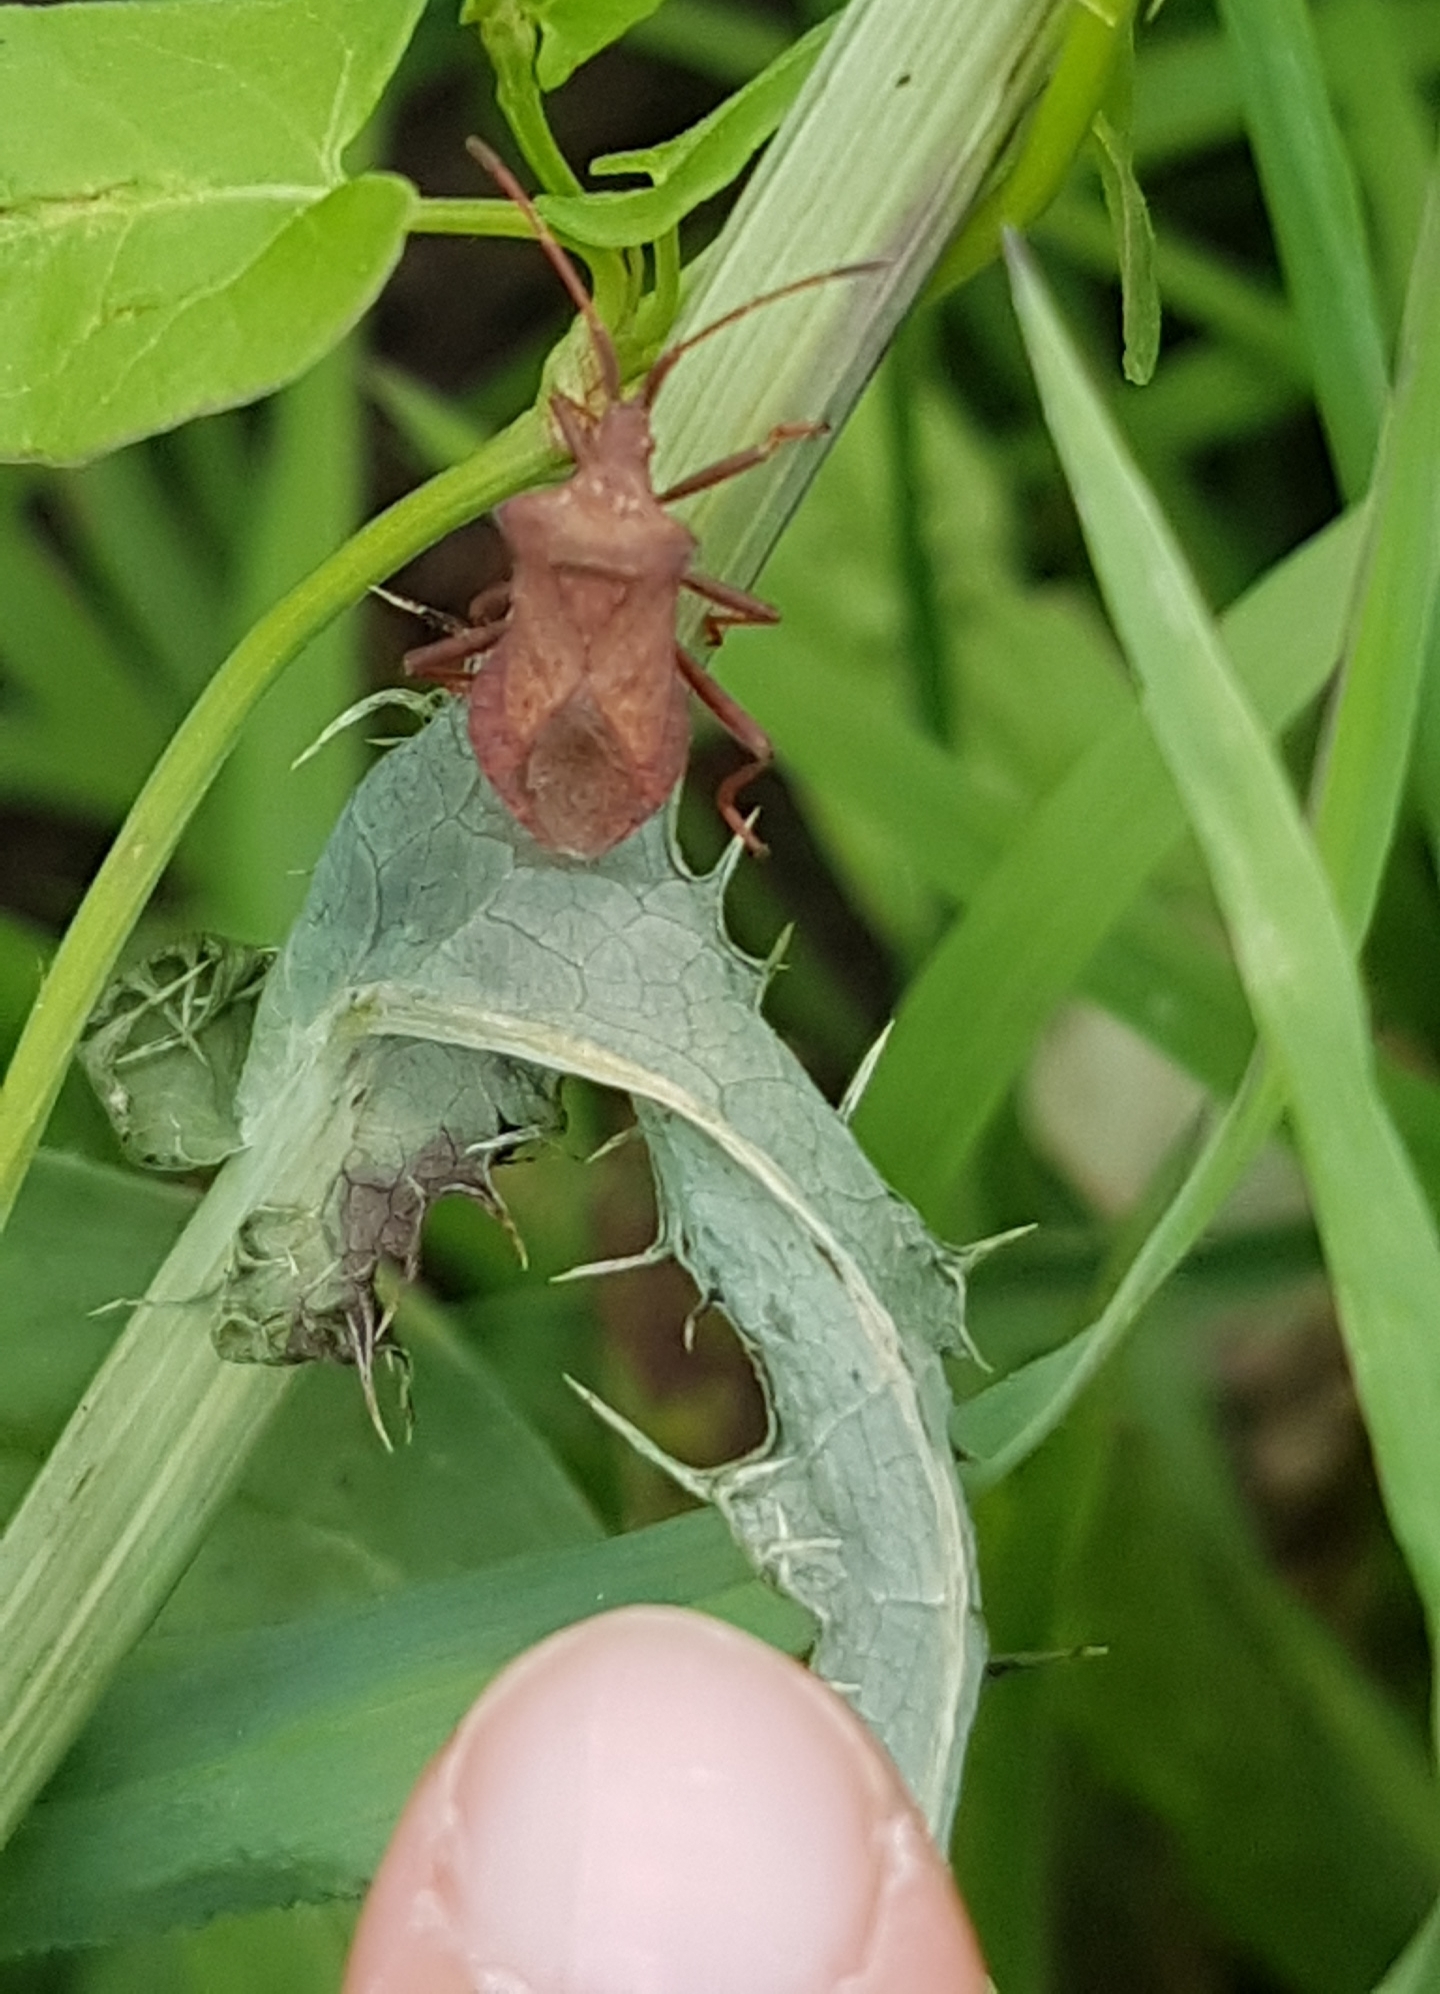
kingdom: Animalia
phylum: Arthropoda
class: Insecta
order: Hemiptera
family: Coreidae
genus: Coreus
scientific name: Coreus marginatus
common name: Dock bug
